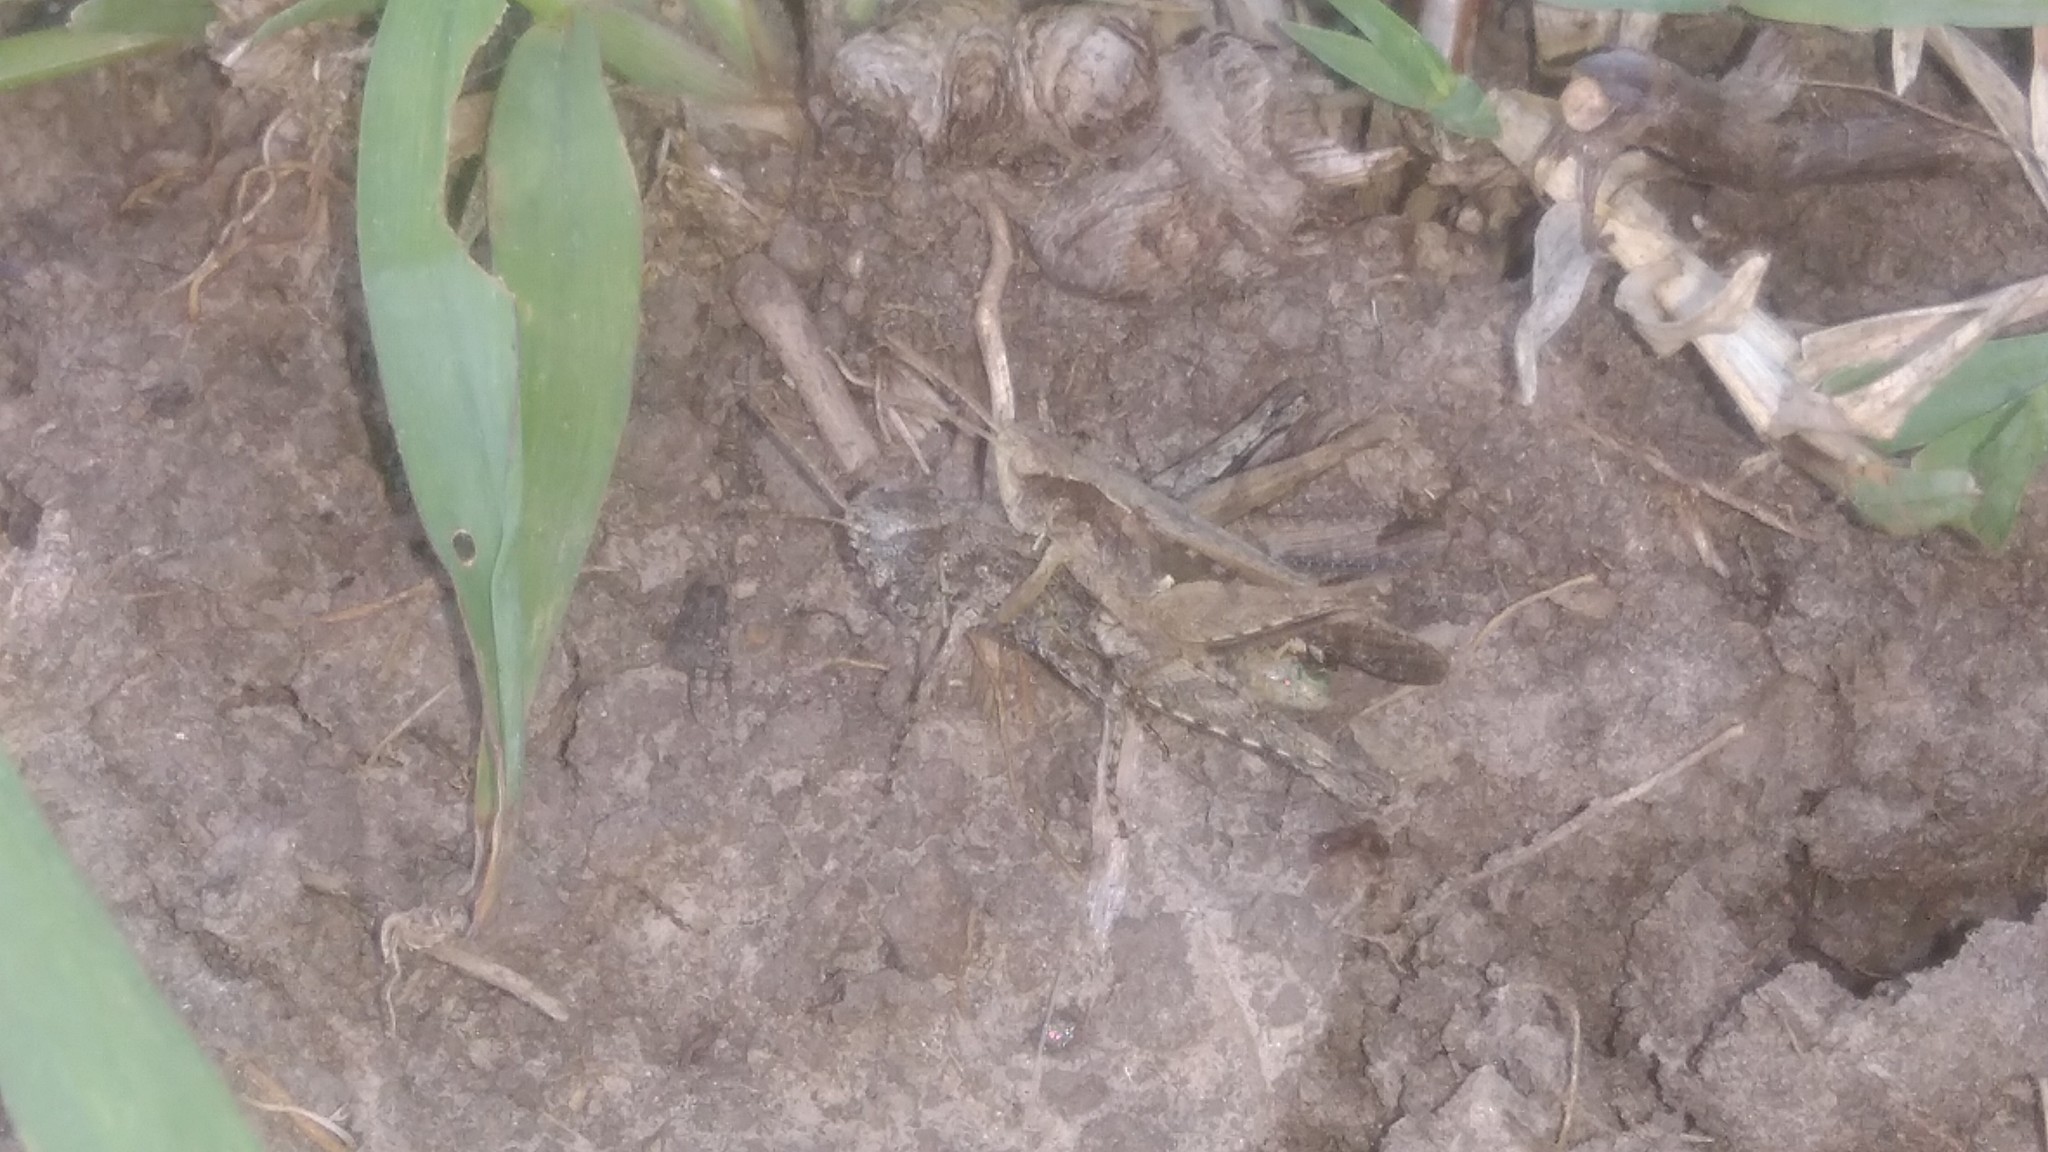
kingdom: Animalia
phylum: Arthropoda
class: Insecta
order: Orthoptera
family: Acrididae
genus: Orphulella
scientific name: Orphulella punctata
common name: Slant-faced grasshopper
